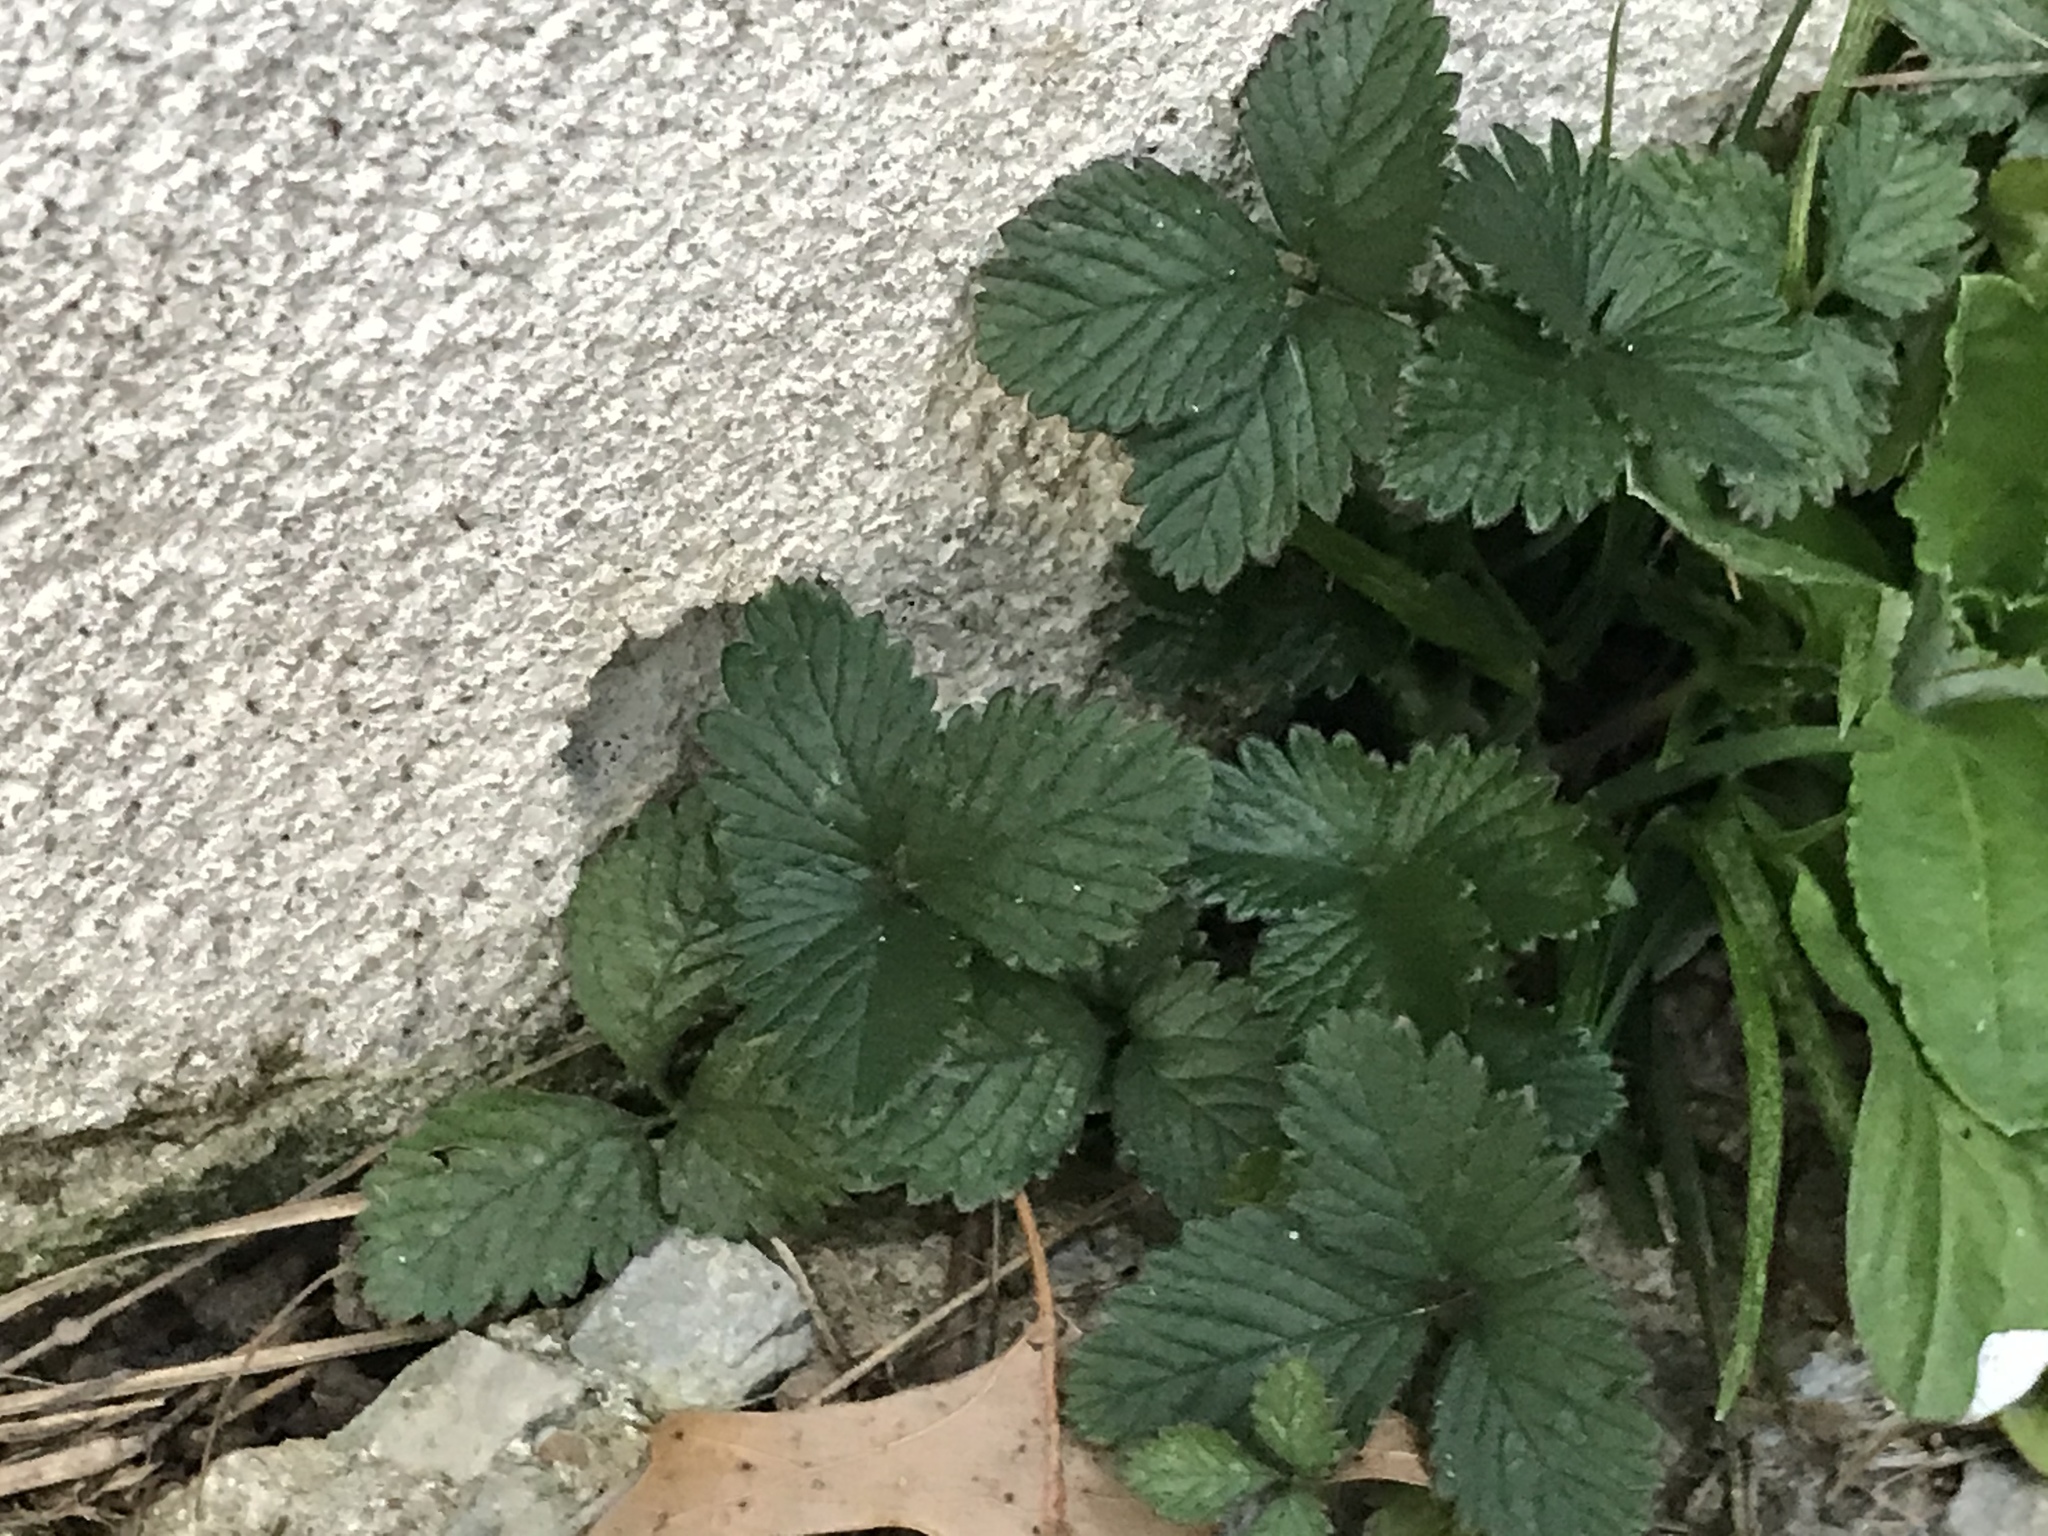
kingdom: Plantae
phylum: Tracheophyta
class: Magnoliopsida
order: Rosales
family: Rosaceae
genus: Potentilla
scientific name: Potentilla indica
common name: Yellow-flowered strawberry
